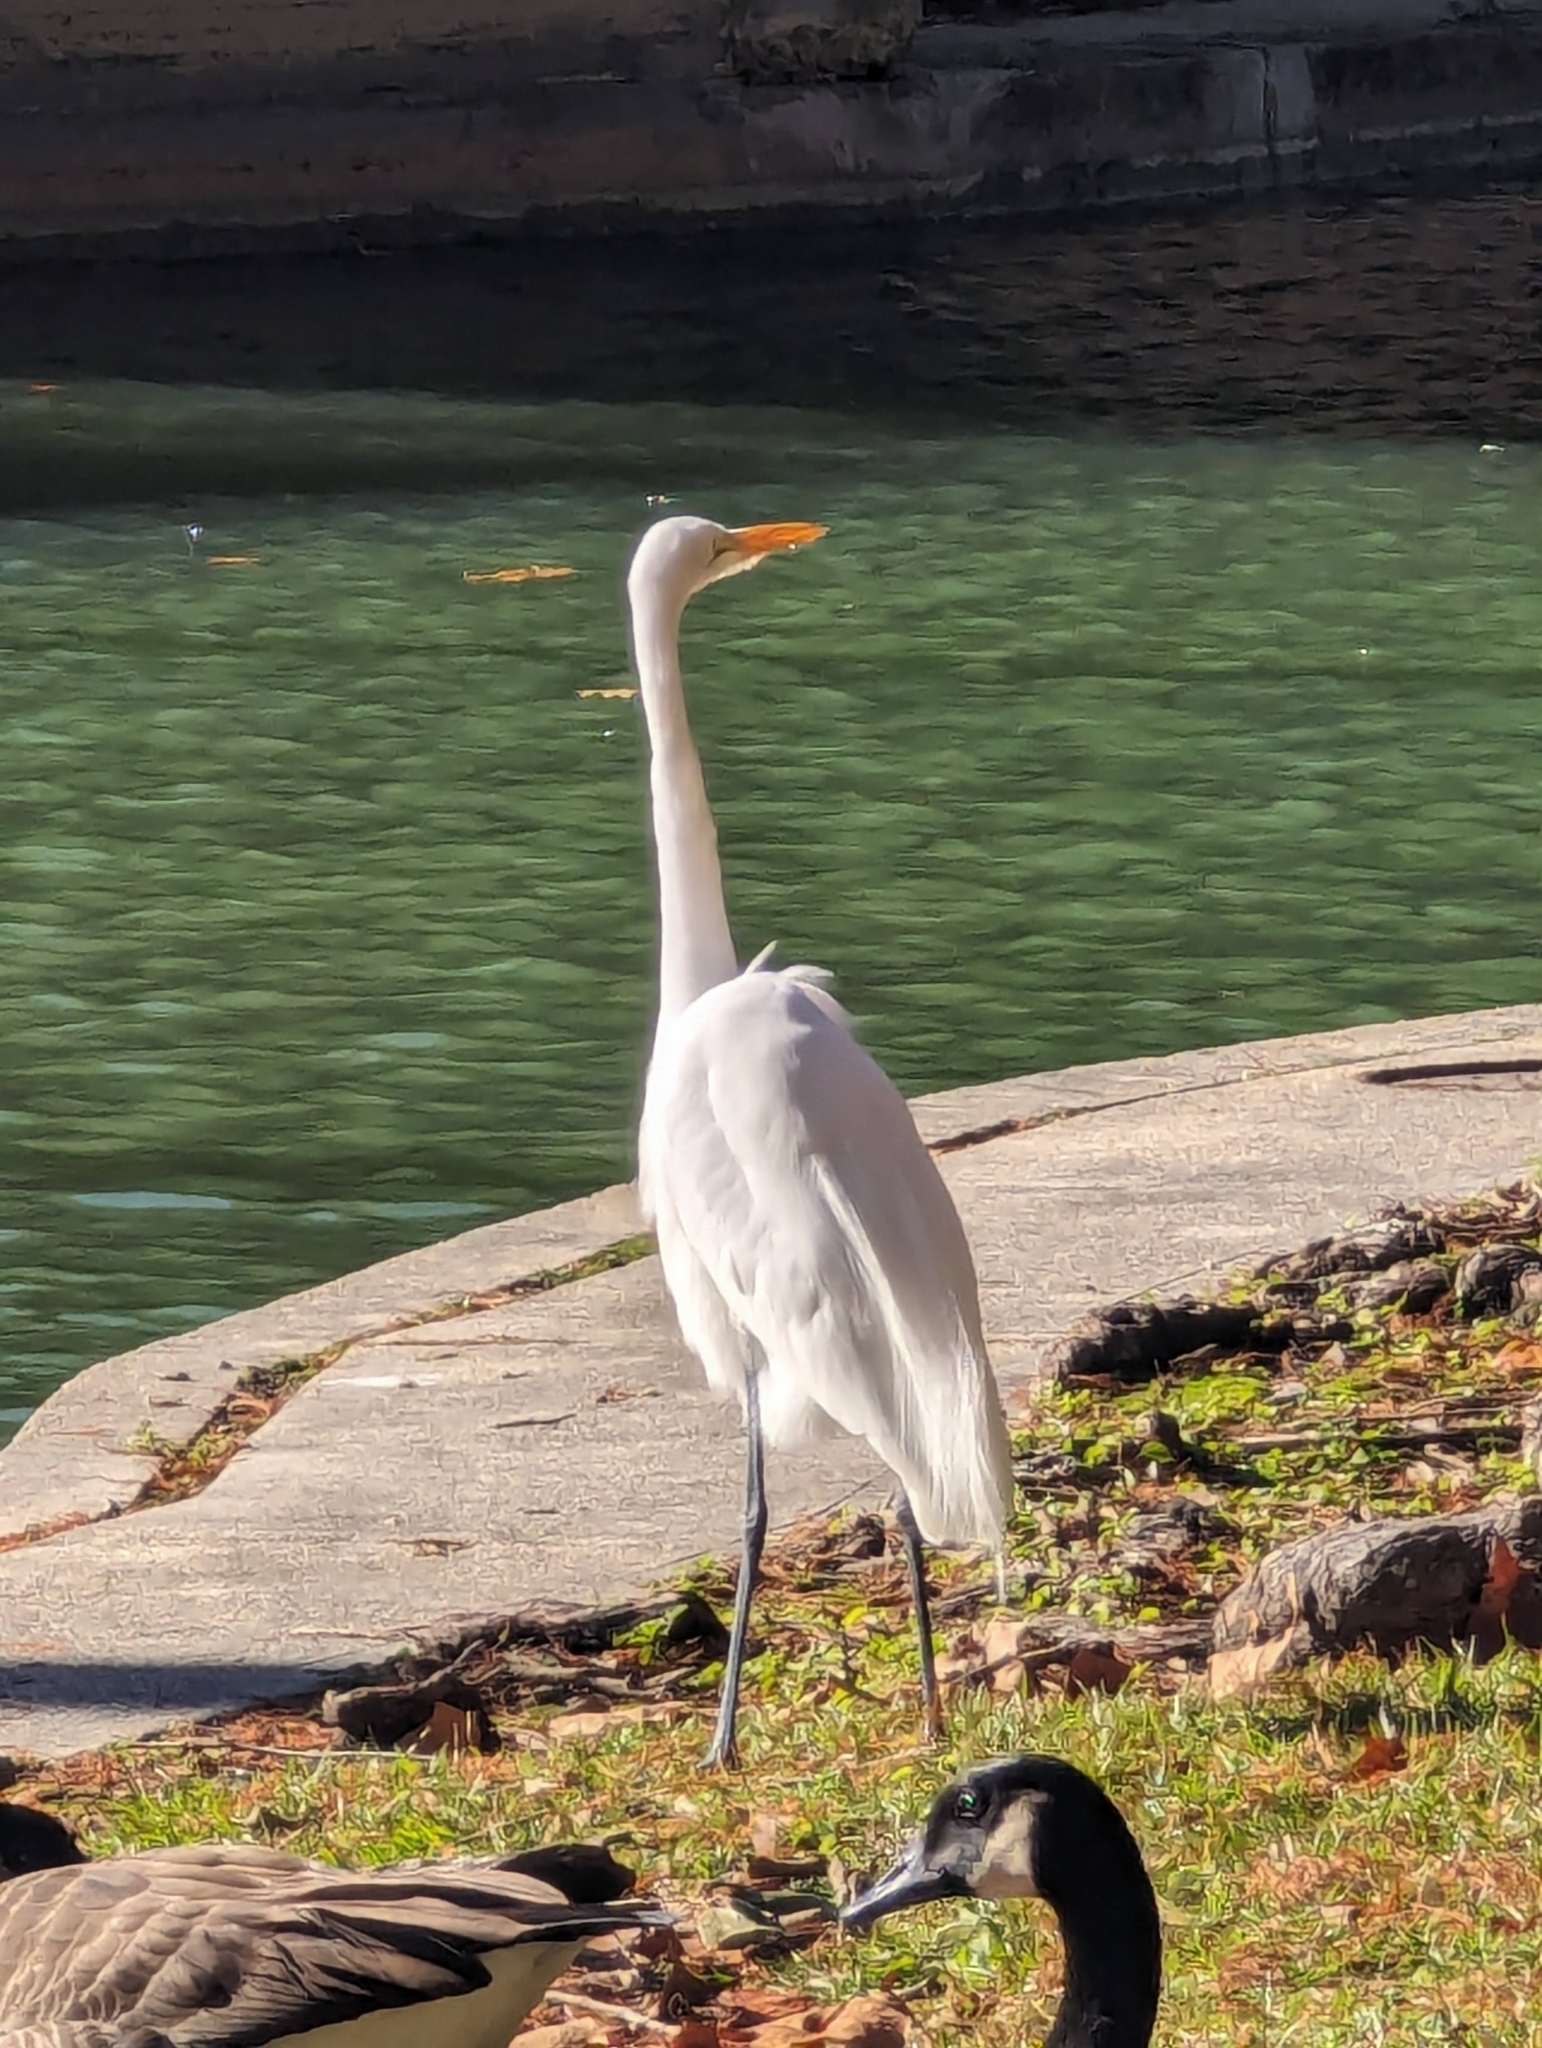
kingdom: Animalia
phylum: Chordata
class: Aves
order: Pelecaniformes
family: Ardeidae
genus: Ardea
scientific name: Ardea alba
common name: Great egret
